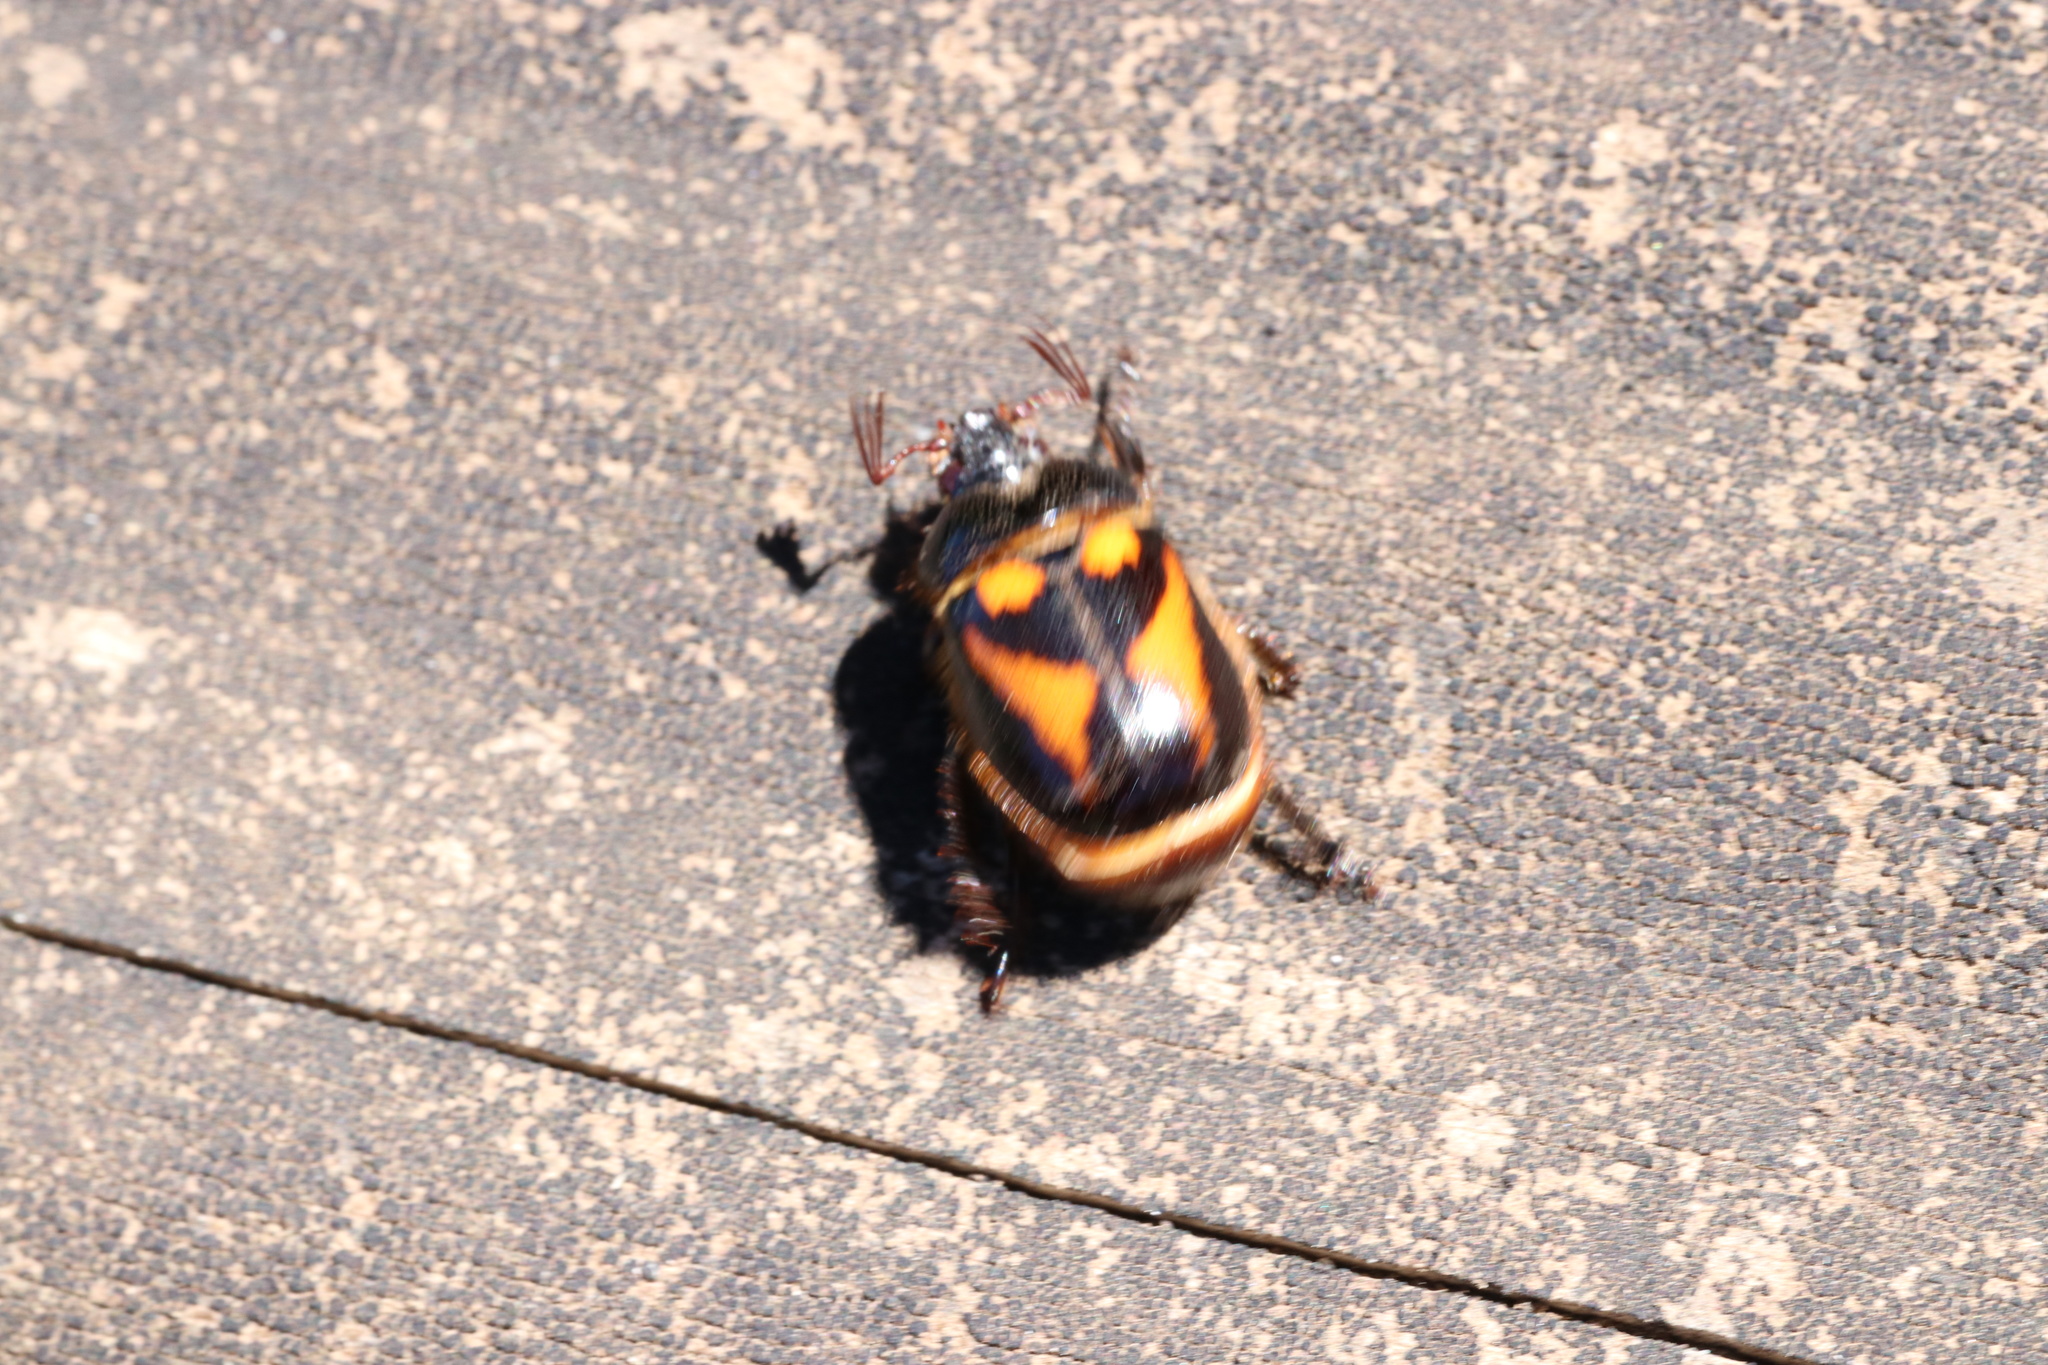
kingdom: Animalia
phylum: Arthropoda
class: Insecta
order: Coleoptera
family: Scarabaeidae
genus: Oryctomorphus
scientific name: Oryctomorphus bimaculatus
